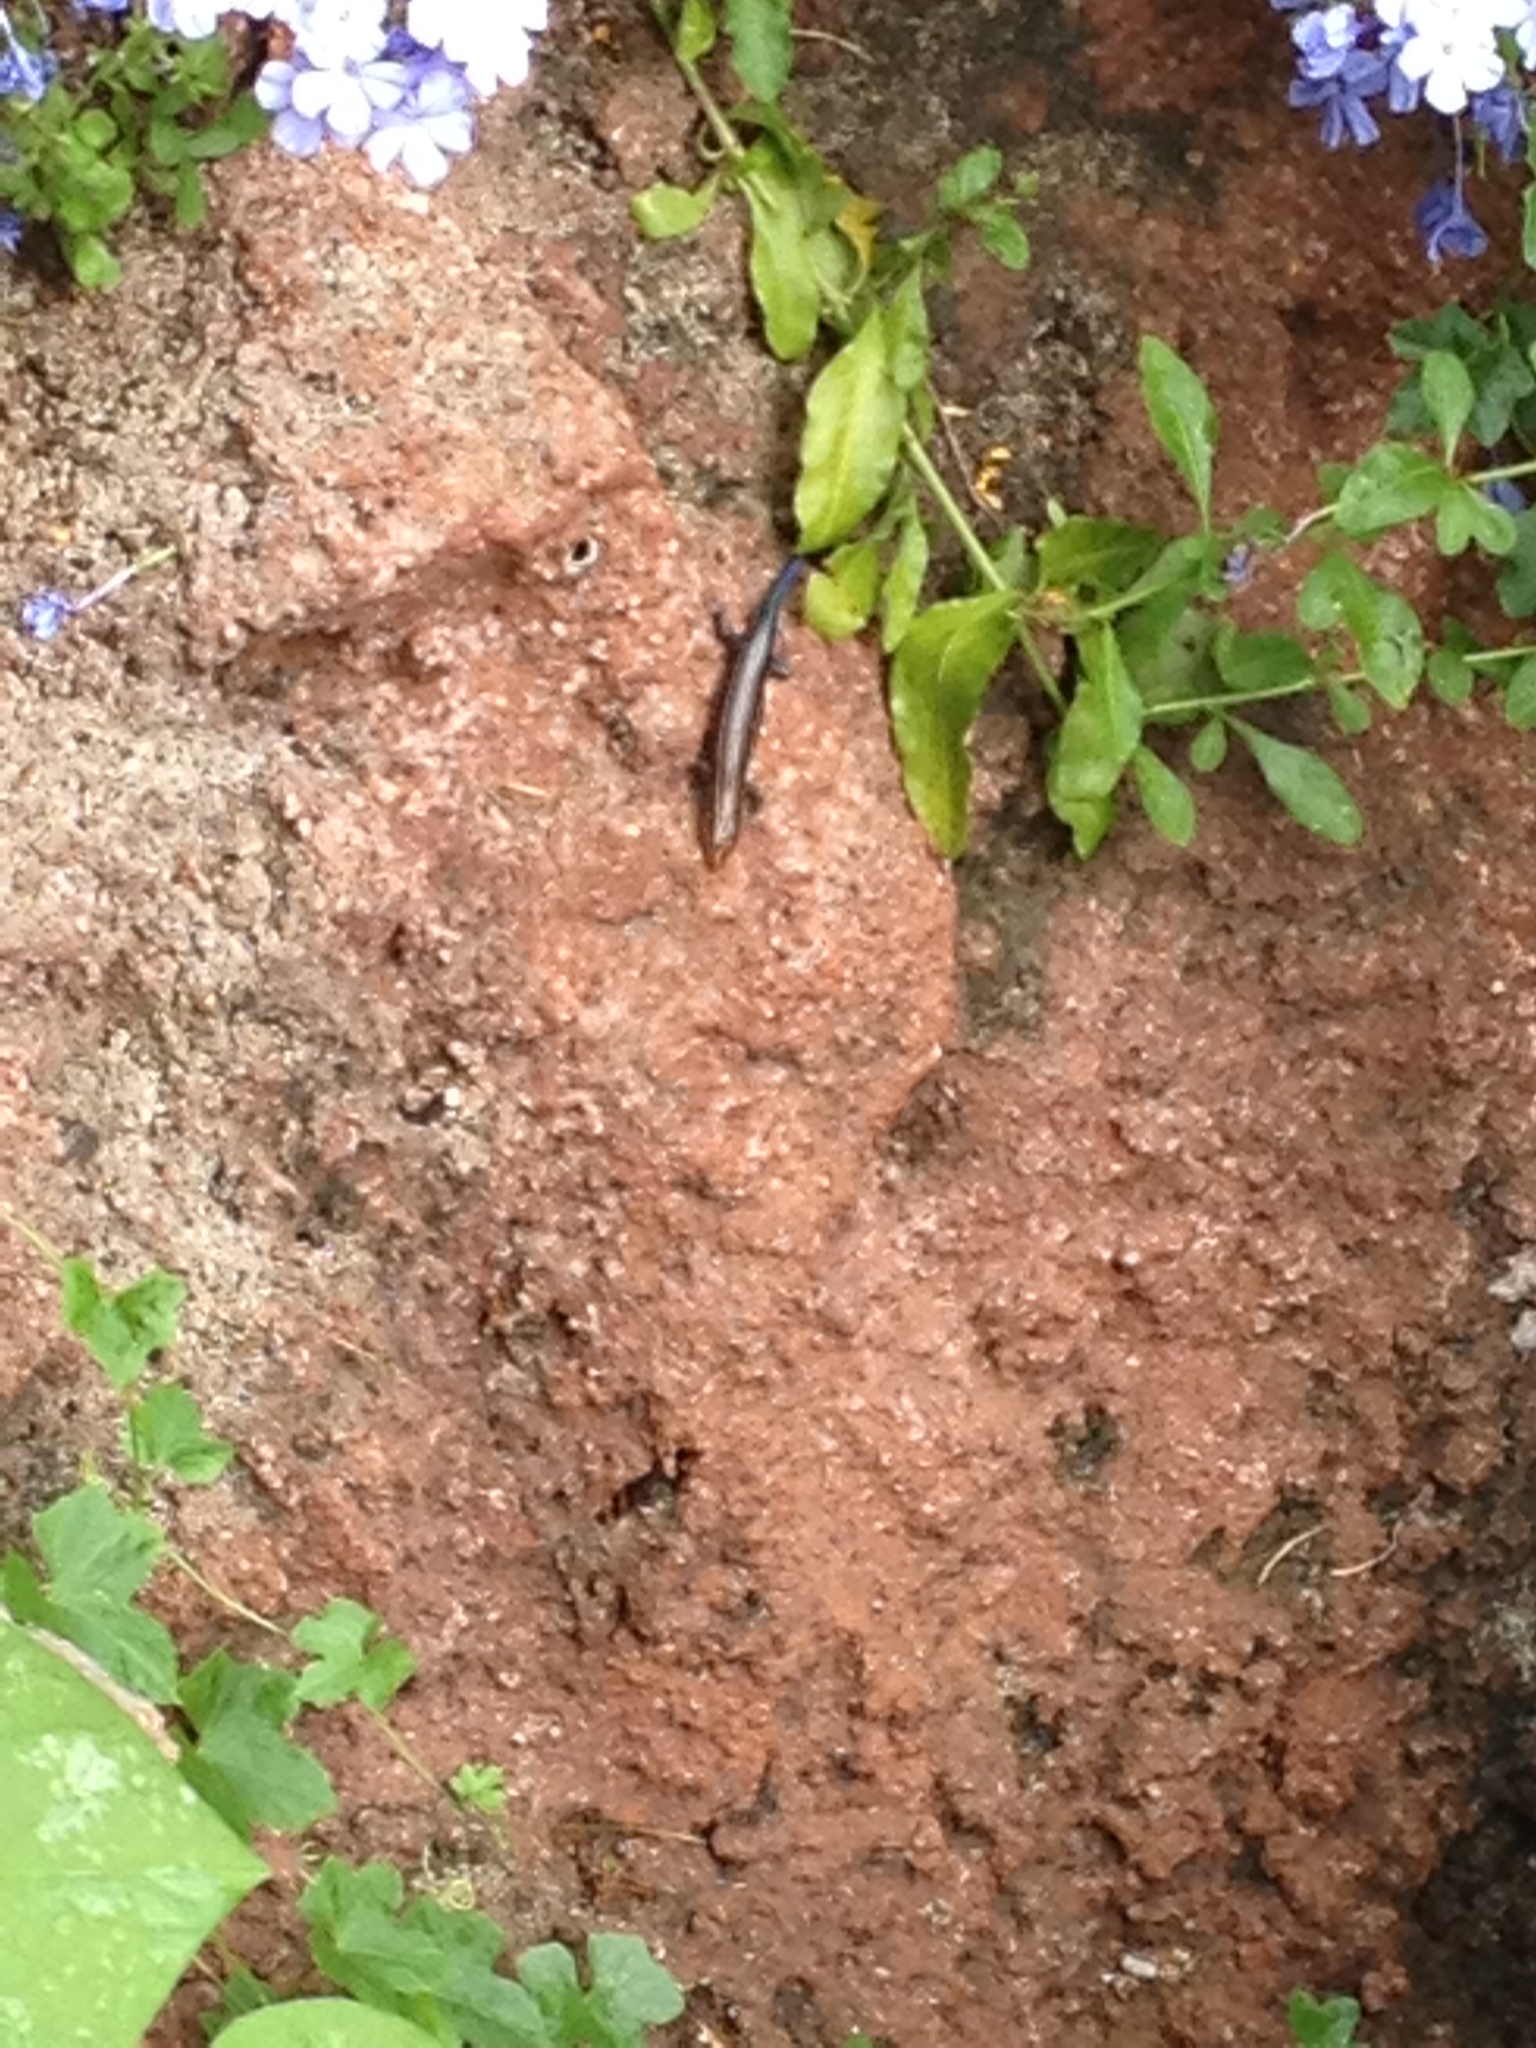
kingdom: Animalia
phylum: Chordata
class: Squamata
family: Scincidae
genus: Plestiodon
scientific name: Plestiodon inexpectatus
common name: Southeastern five-lined skink
